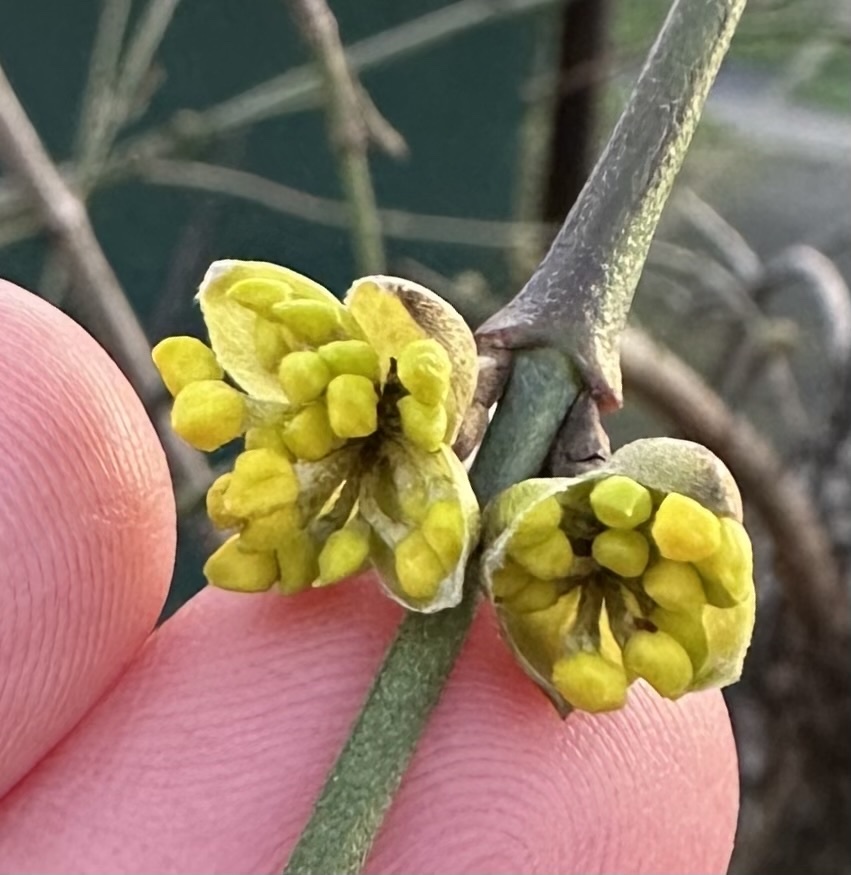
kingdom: Plantae
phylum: Tracheophyta
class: Magnoliopsida
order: Cornales
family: Cornaceae
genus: Cornus
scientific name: Cornus mas
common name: Cornelian-cherry
